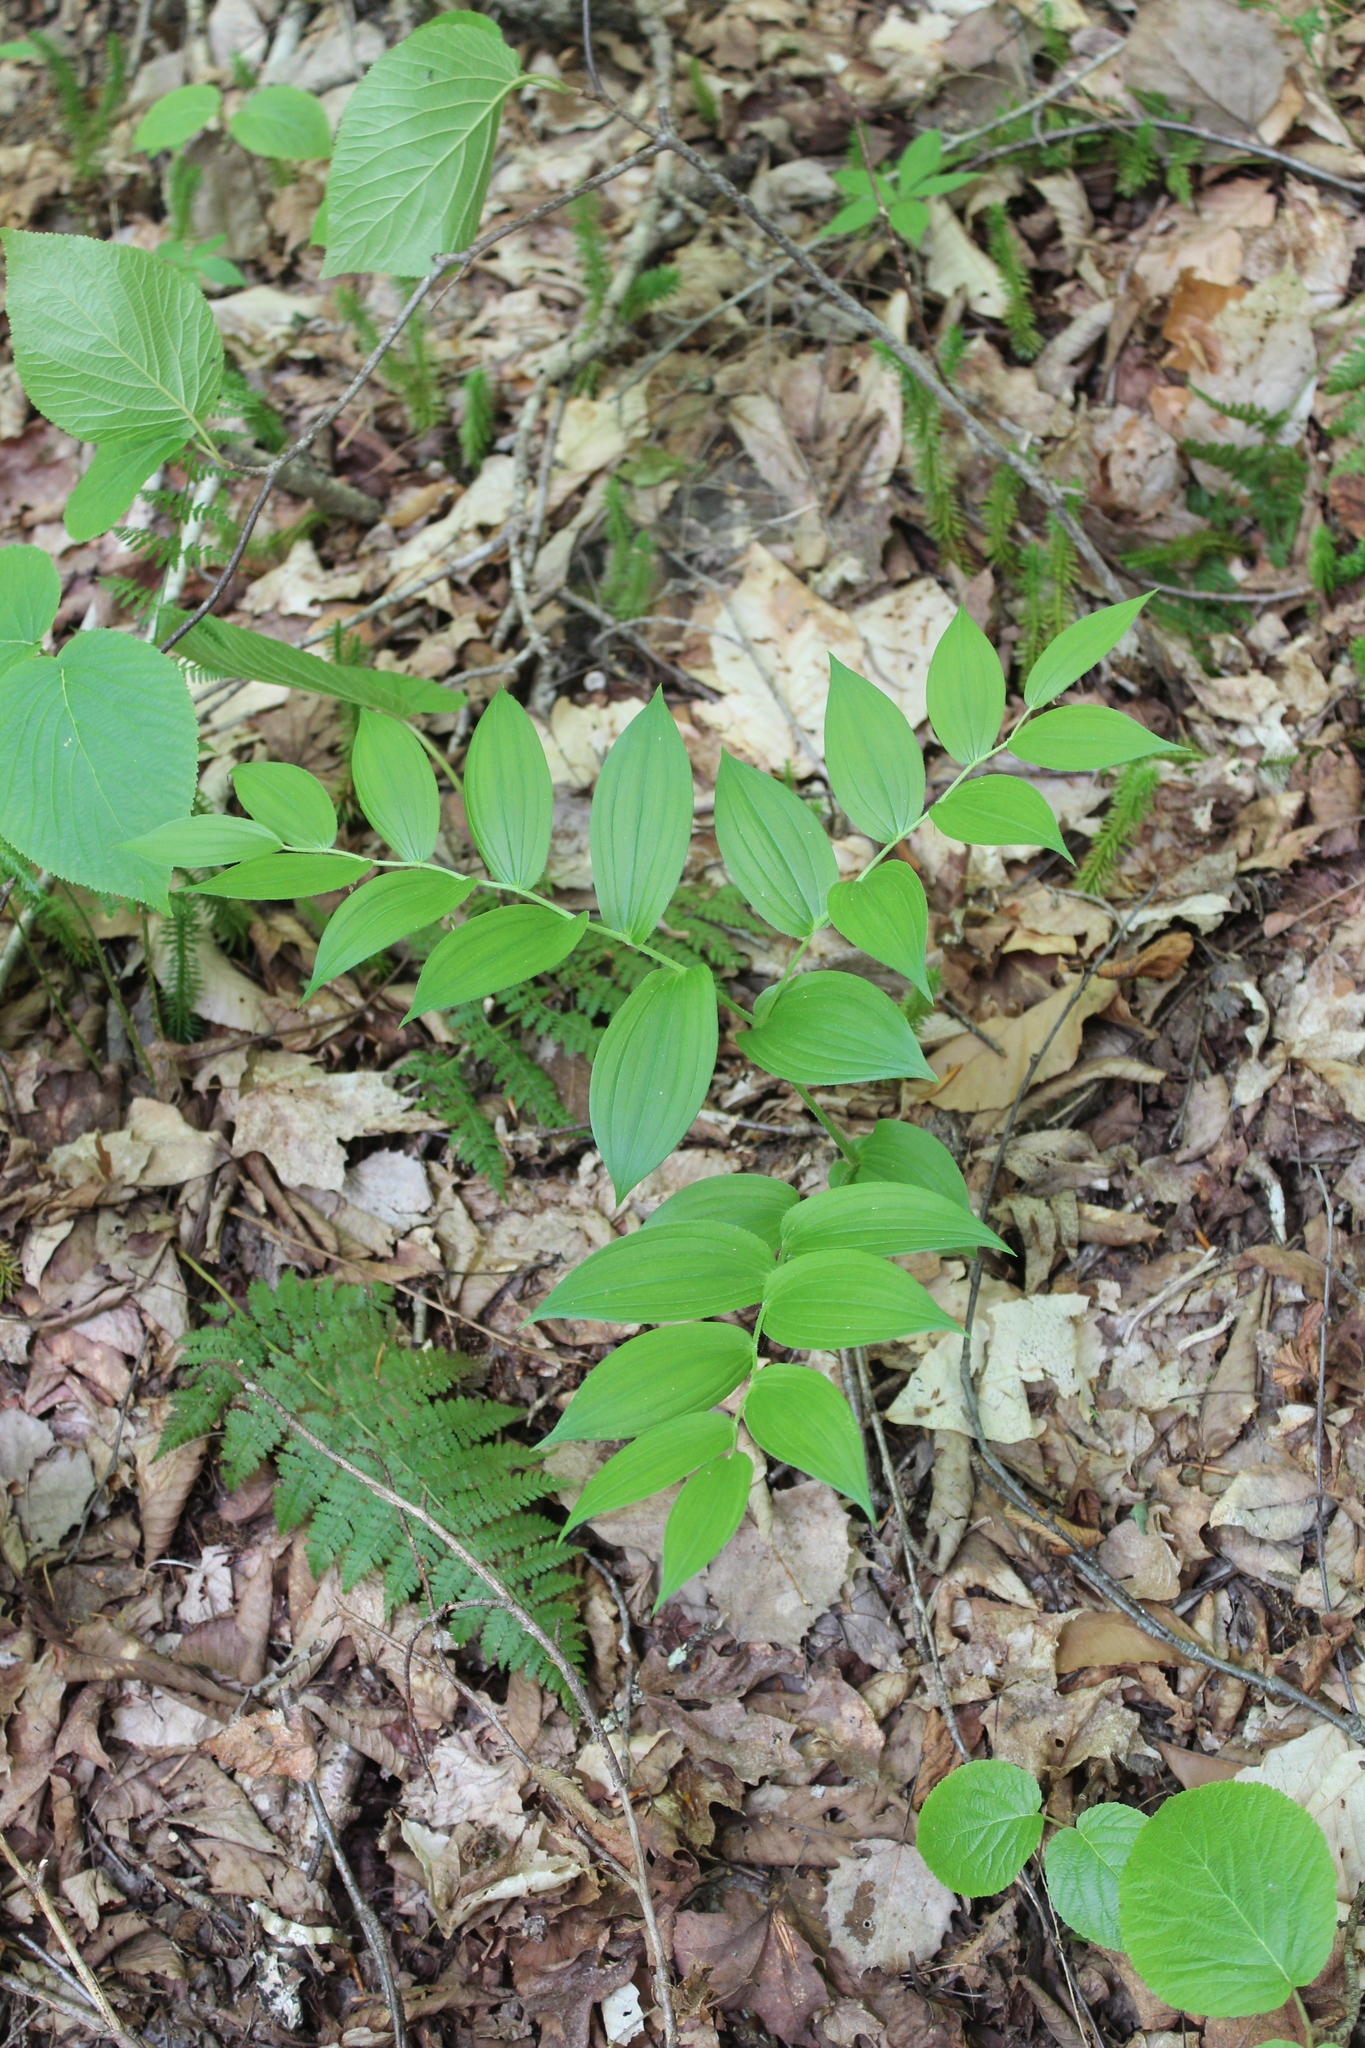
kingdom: Plantae
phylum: Tracheophyta
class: Liliopsida
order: Liliales
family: Liliaceae
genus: Streptopus
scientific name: Streptopus lanceolatus
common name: Rose mandarin
